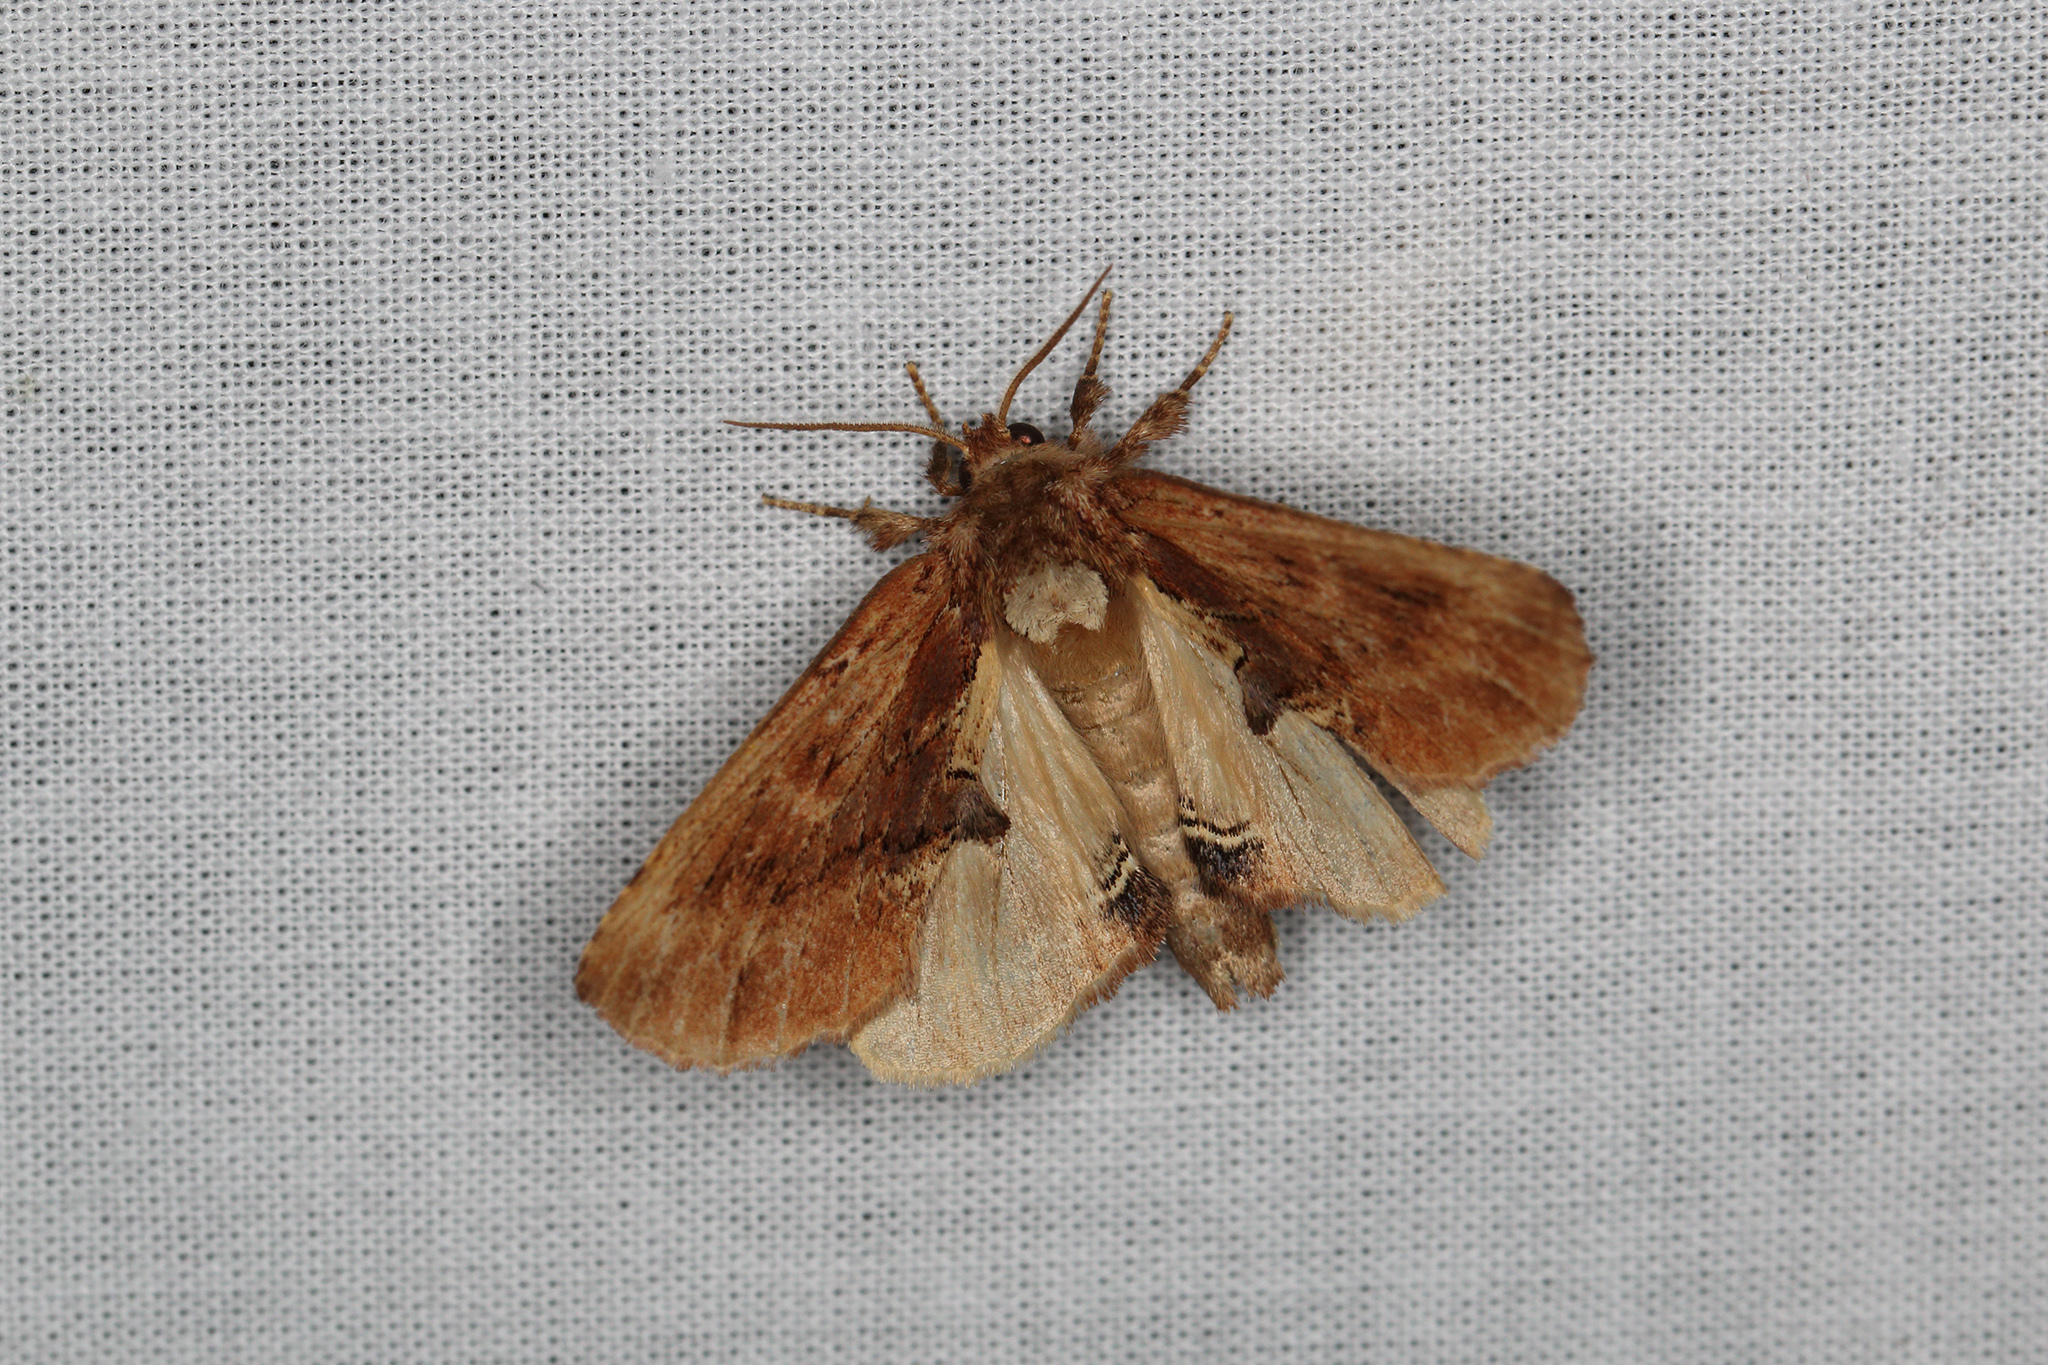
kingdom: Animalia
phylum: Arthropoda
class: Insecta
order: Lepidoptera
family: Notodontidae
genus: Ptilodon
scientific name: Ptilodon capucina
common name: Coxcomb prominent
